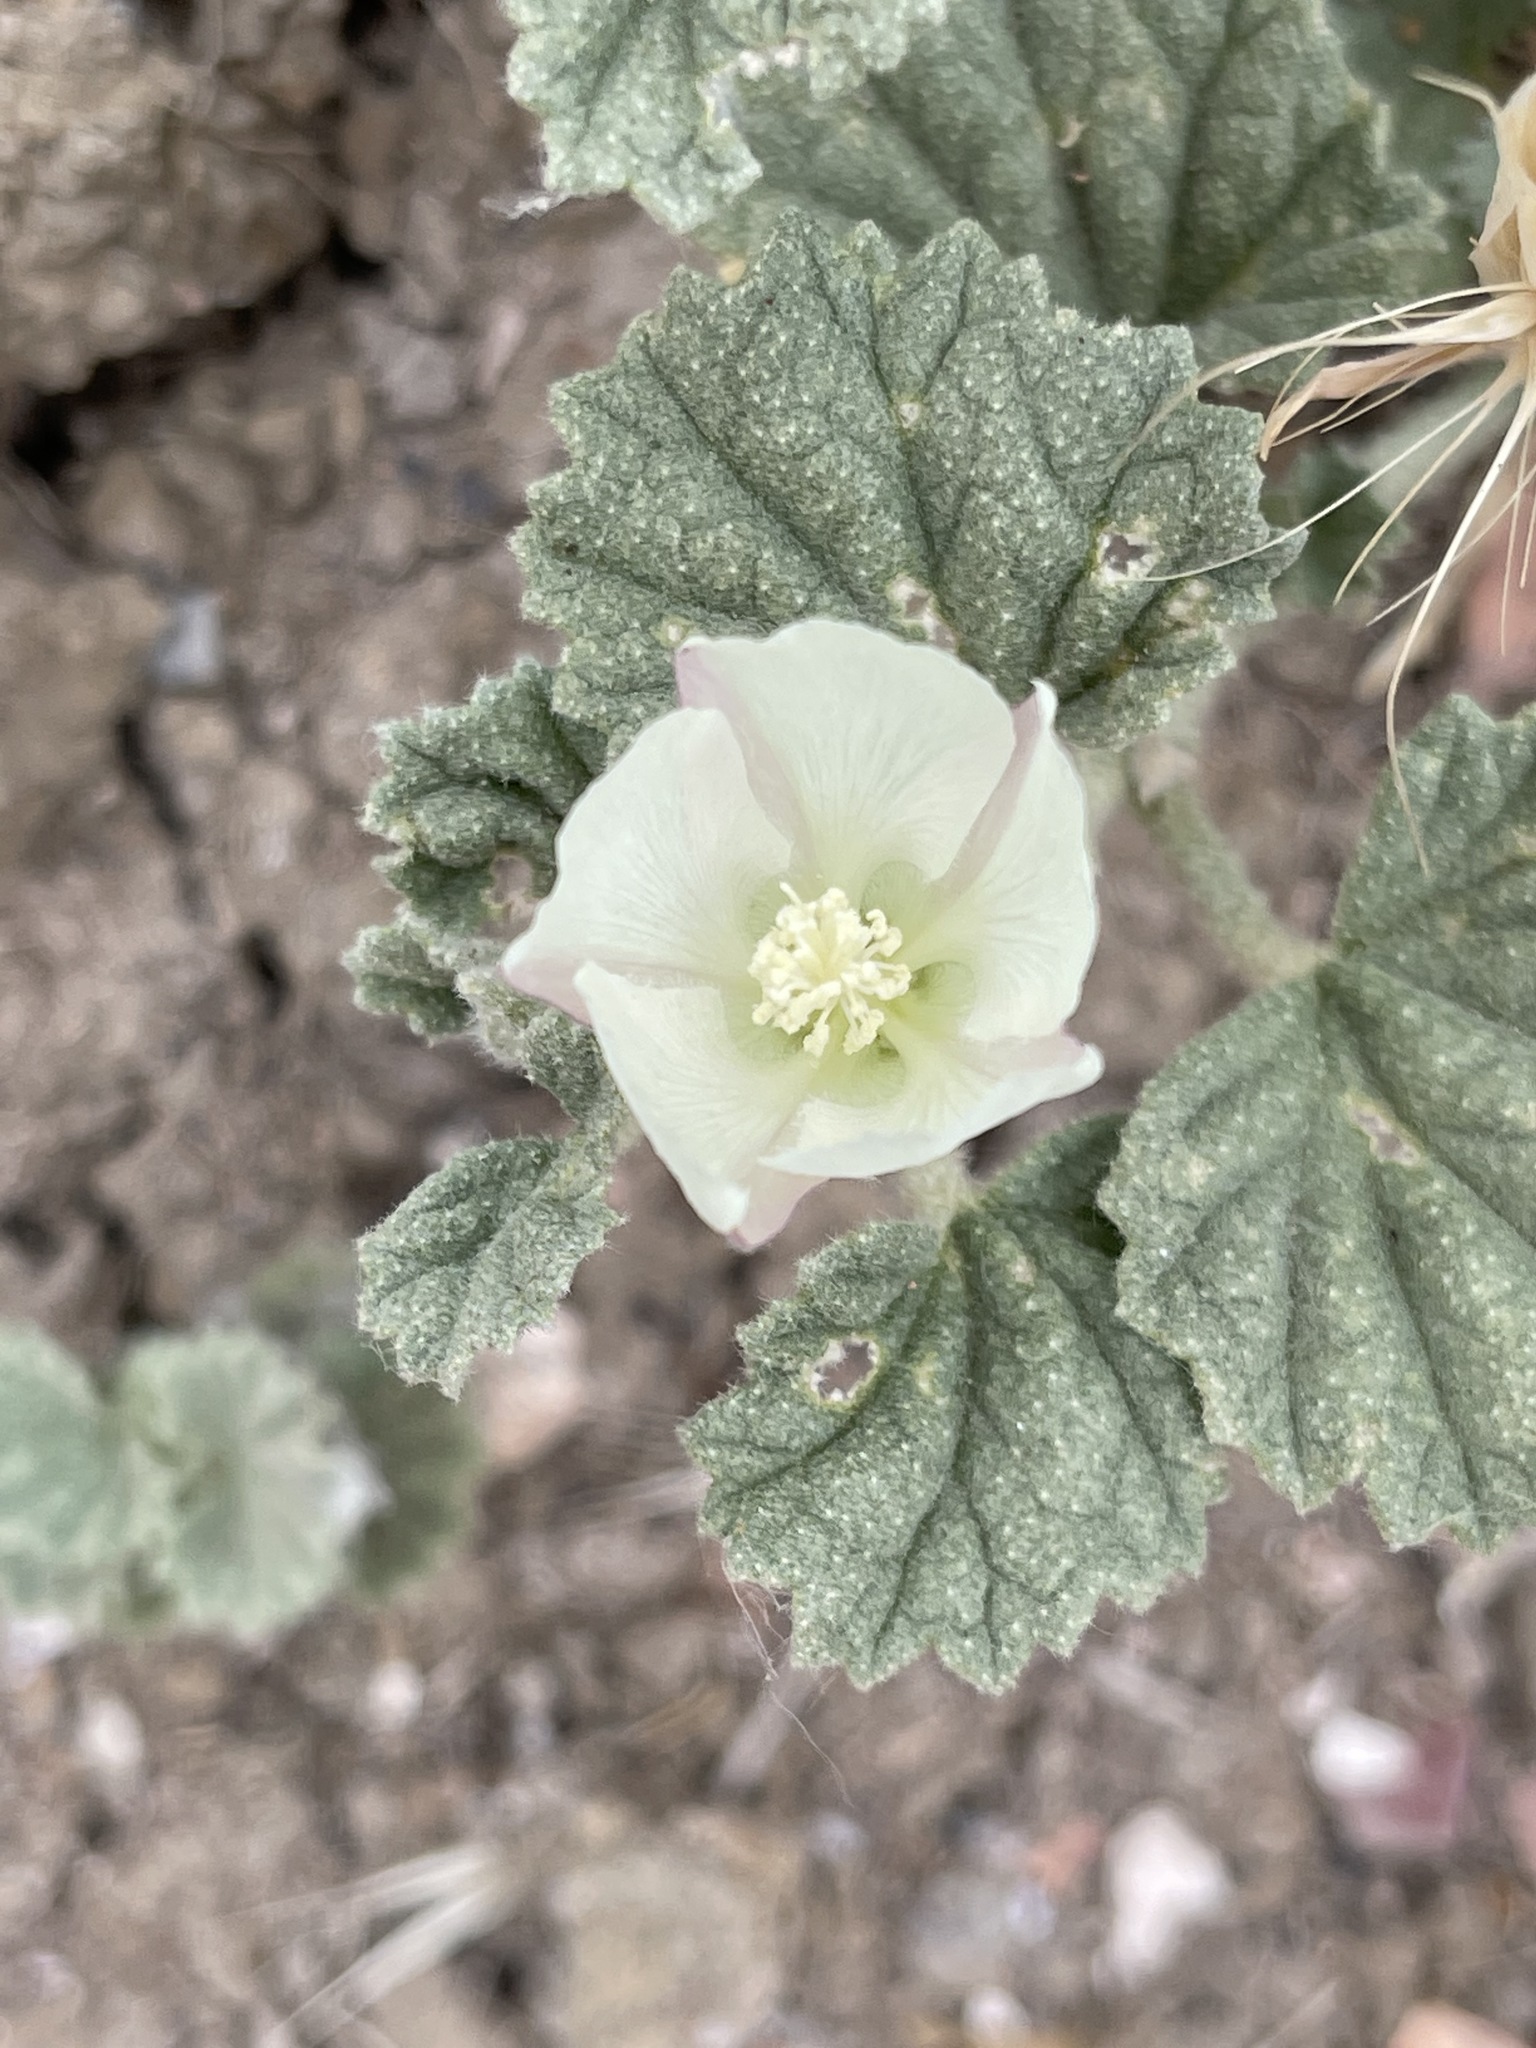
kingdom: Plantae
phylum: Tracheophyta
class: Magnoliopsida
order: Malvales
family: Malvaceae
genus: Malvella
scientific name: Malvella leprosa
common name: Alkali-mallow
